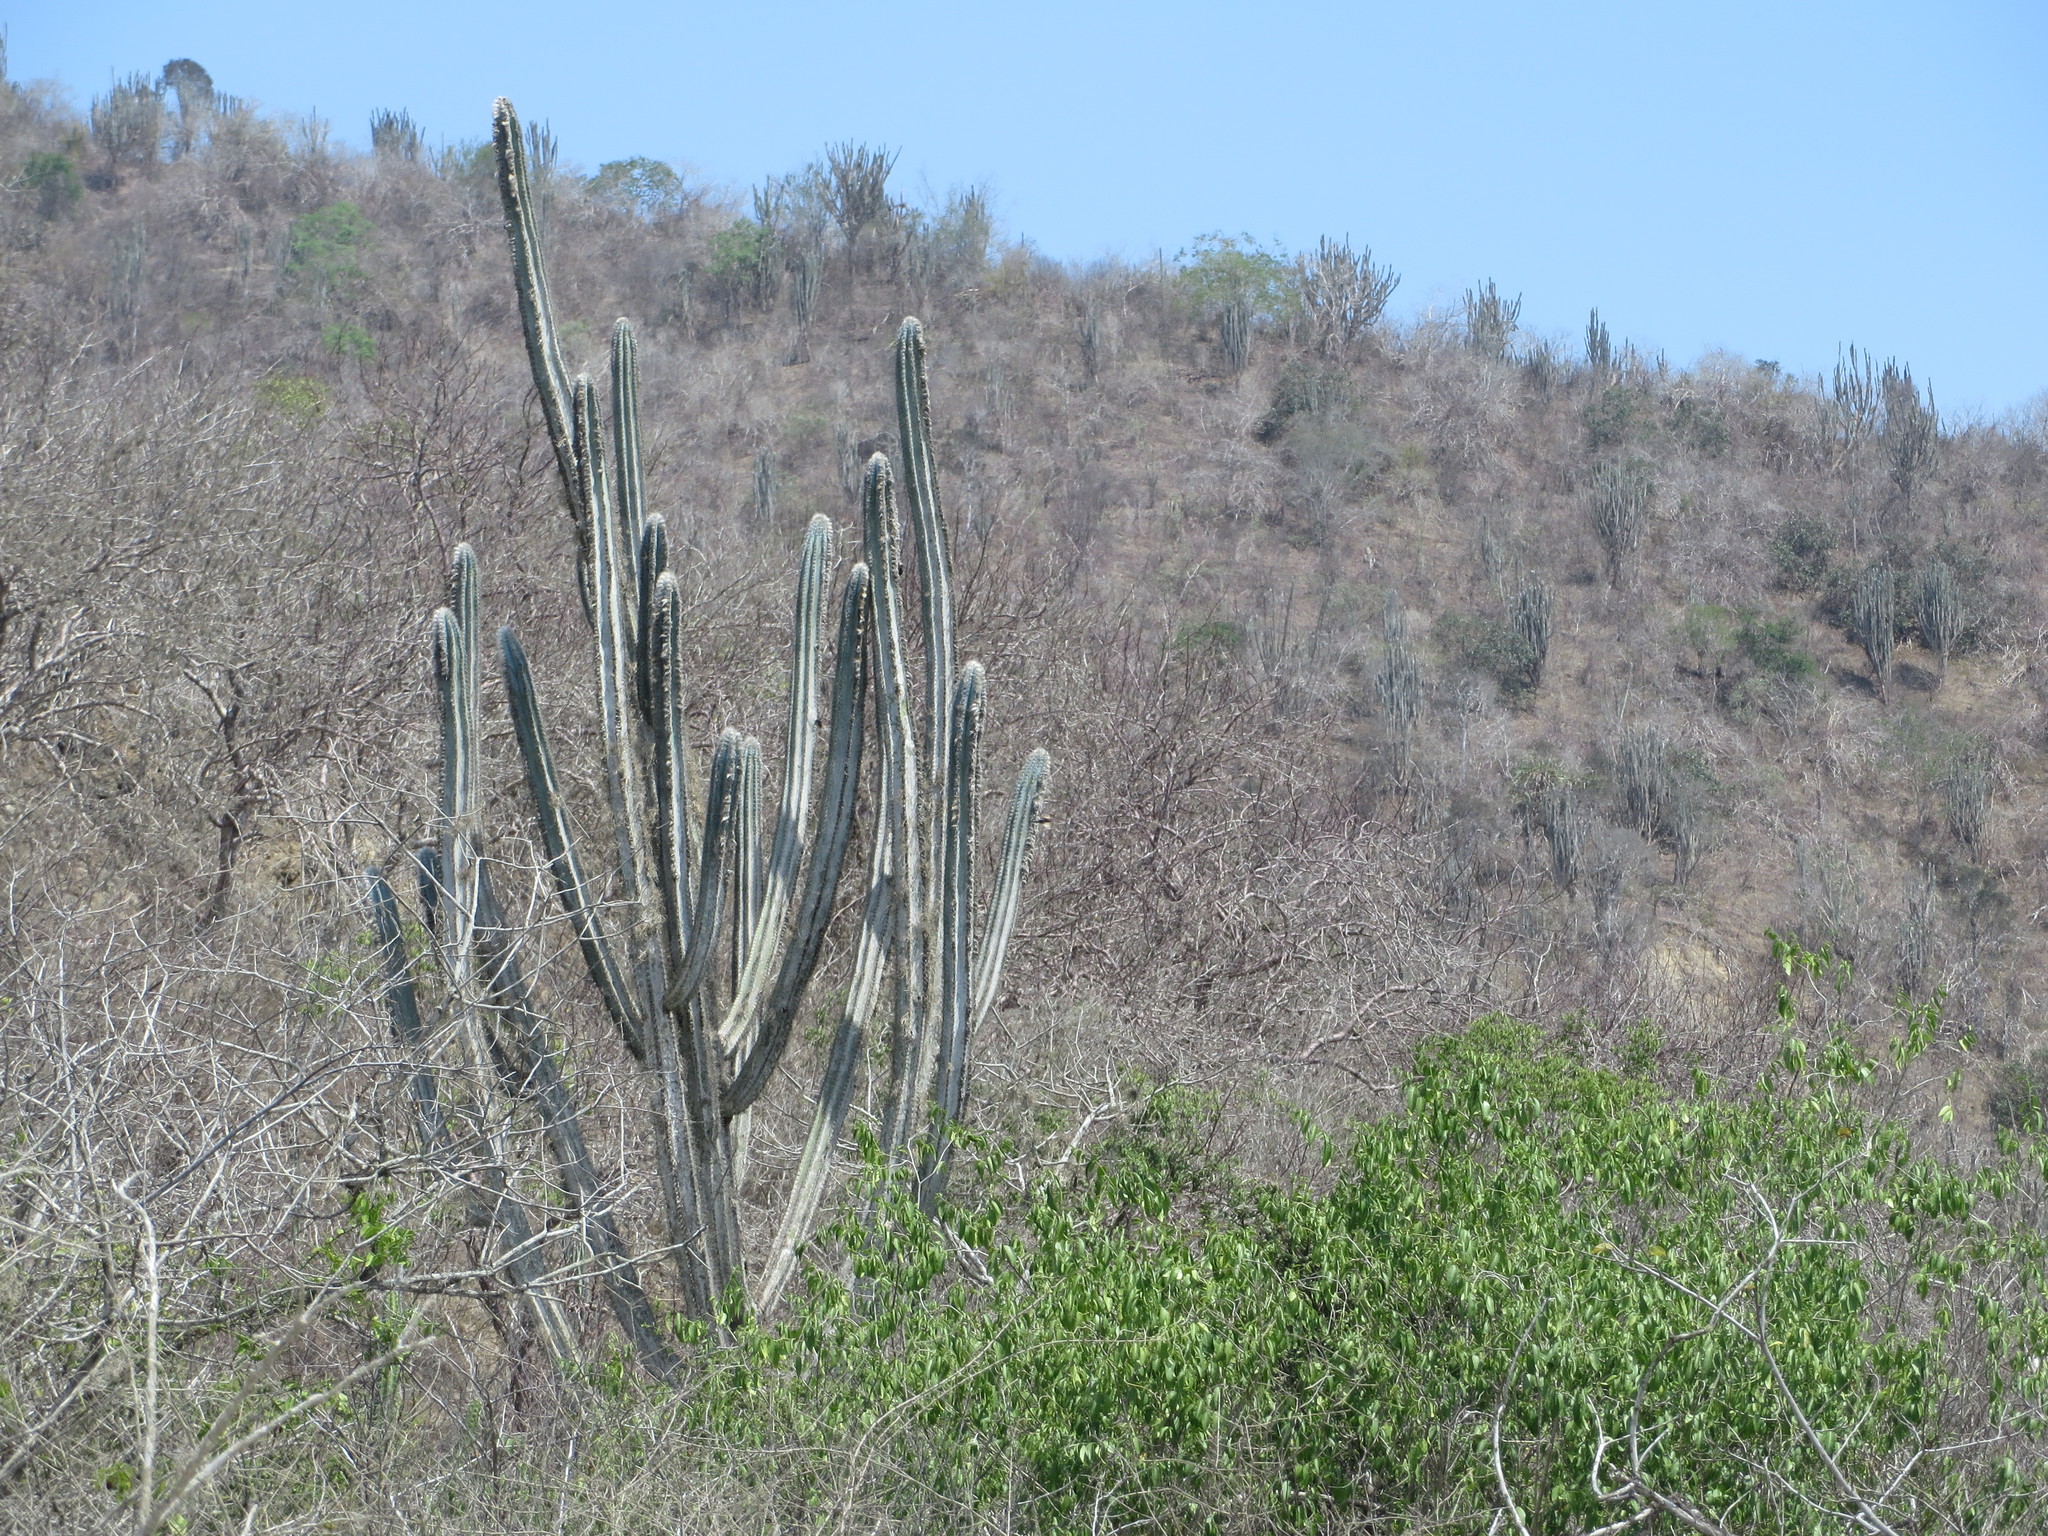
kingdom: Plantae
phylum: Tracheophyta
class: Magnoliopsida
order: Caryophyllales
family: Cactaceae
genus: Pilosocereus
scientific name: Pilosocereus lanuginosus
